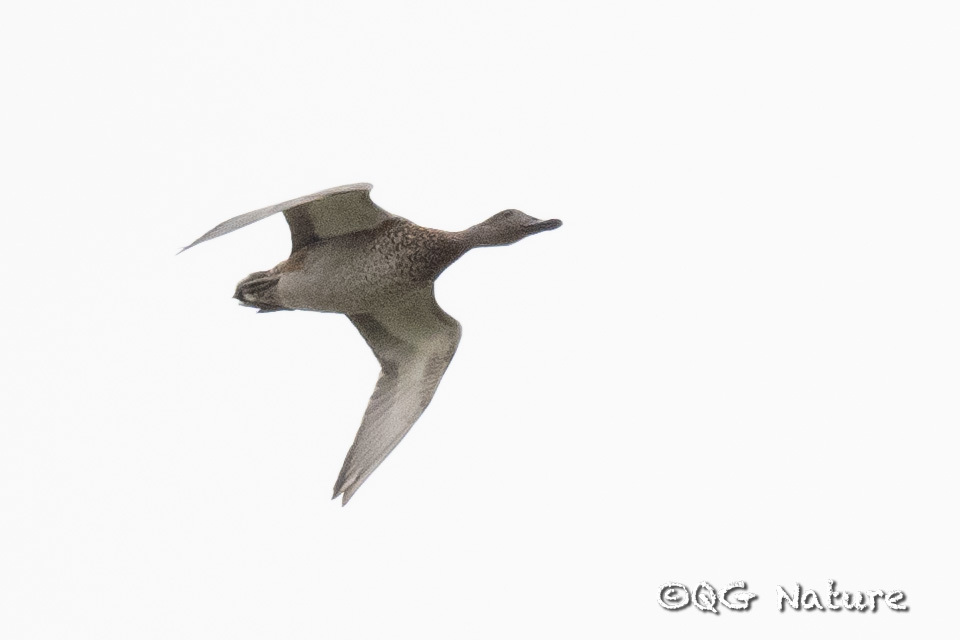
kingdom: Animalia
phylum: Chordata
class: Aves
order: Anseriformes
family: Anatidae
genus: Mareca
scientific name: Mareca falcata
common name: Falcated duck
